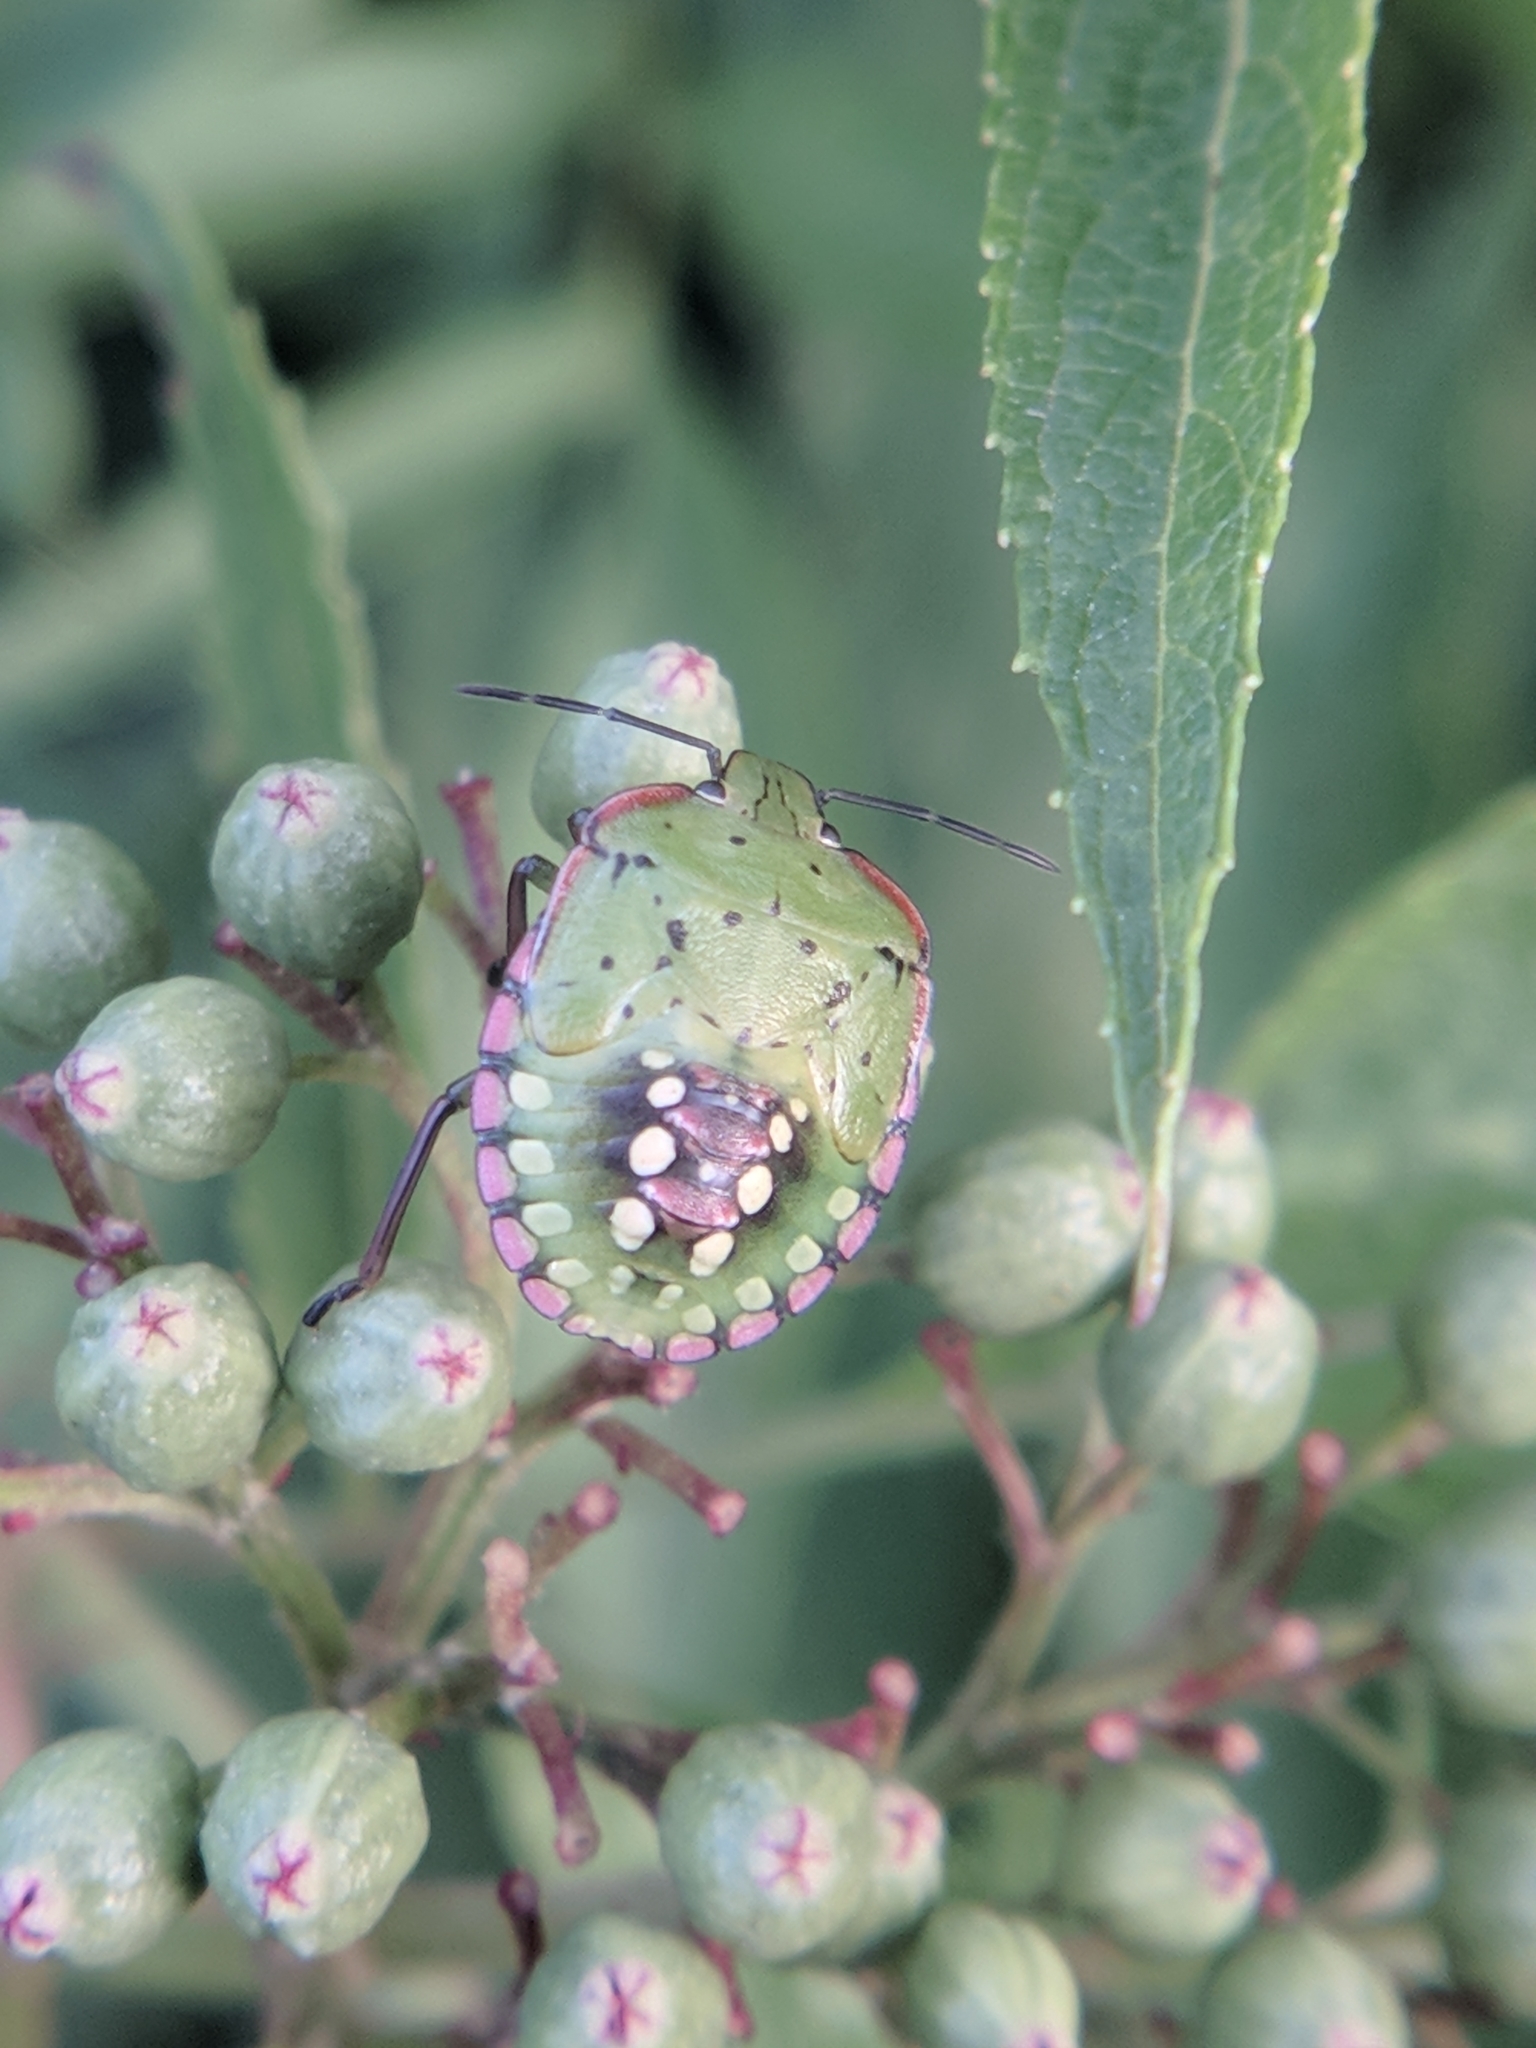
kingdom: Animalia
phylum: Arthropoda
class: Insecta
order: Hemiptera
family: Pentatomidae
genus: Nezara
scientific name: Nezara viridula
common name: Southern green stink bug
